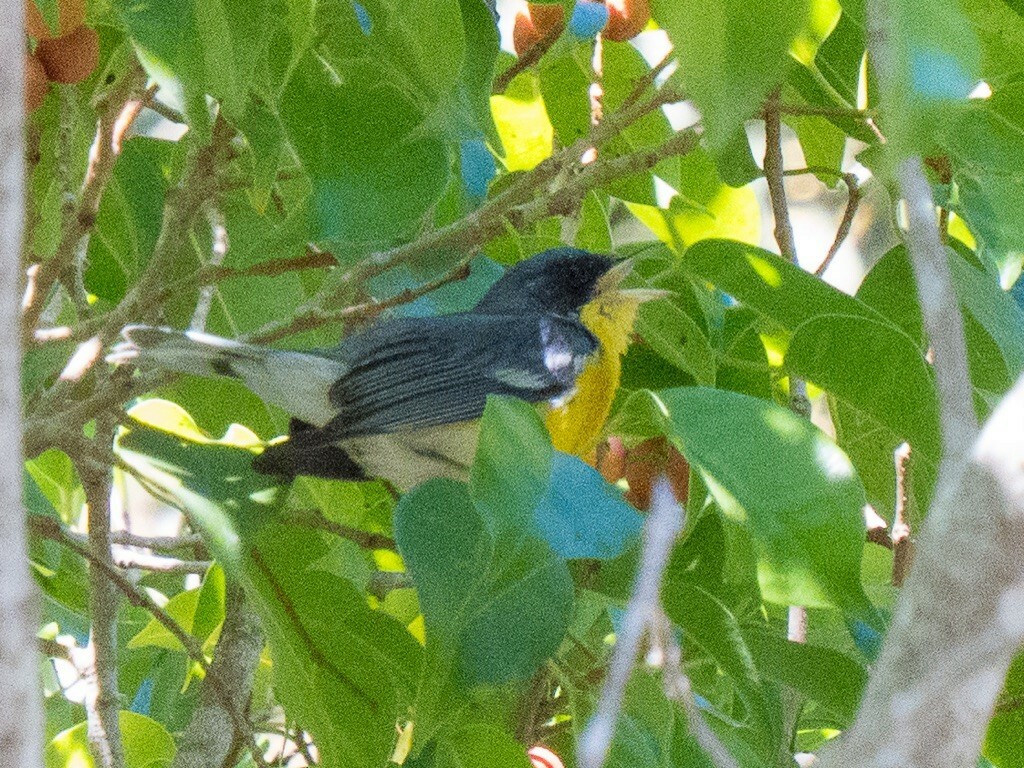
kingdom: Animalia
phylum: Chordata
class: Aves
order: Passeriformes
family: Parulidae
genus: Setophaga
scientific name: Setophaga pitiayumi
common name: Tropical parula
